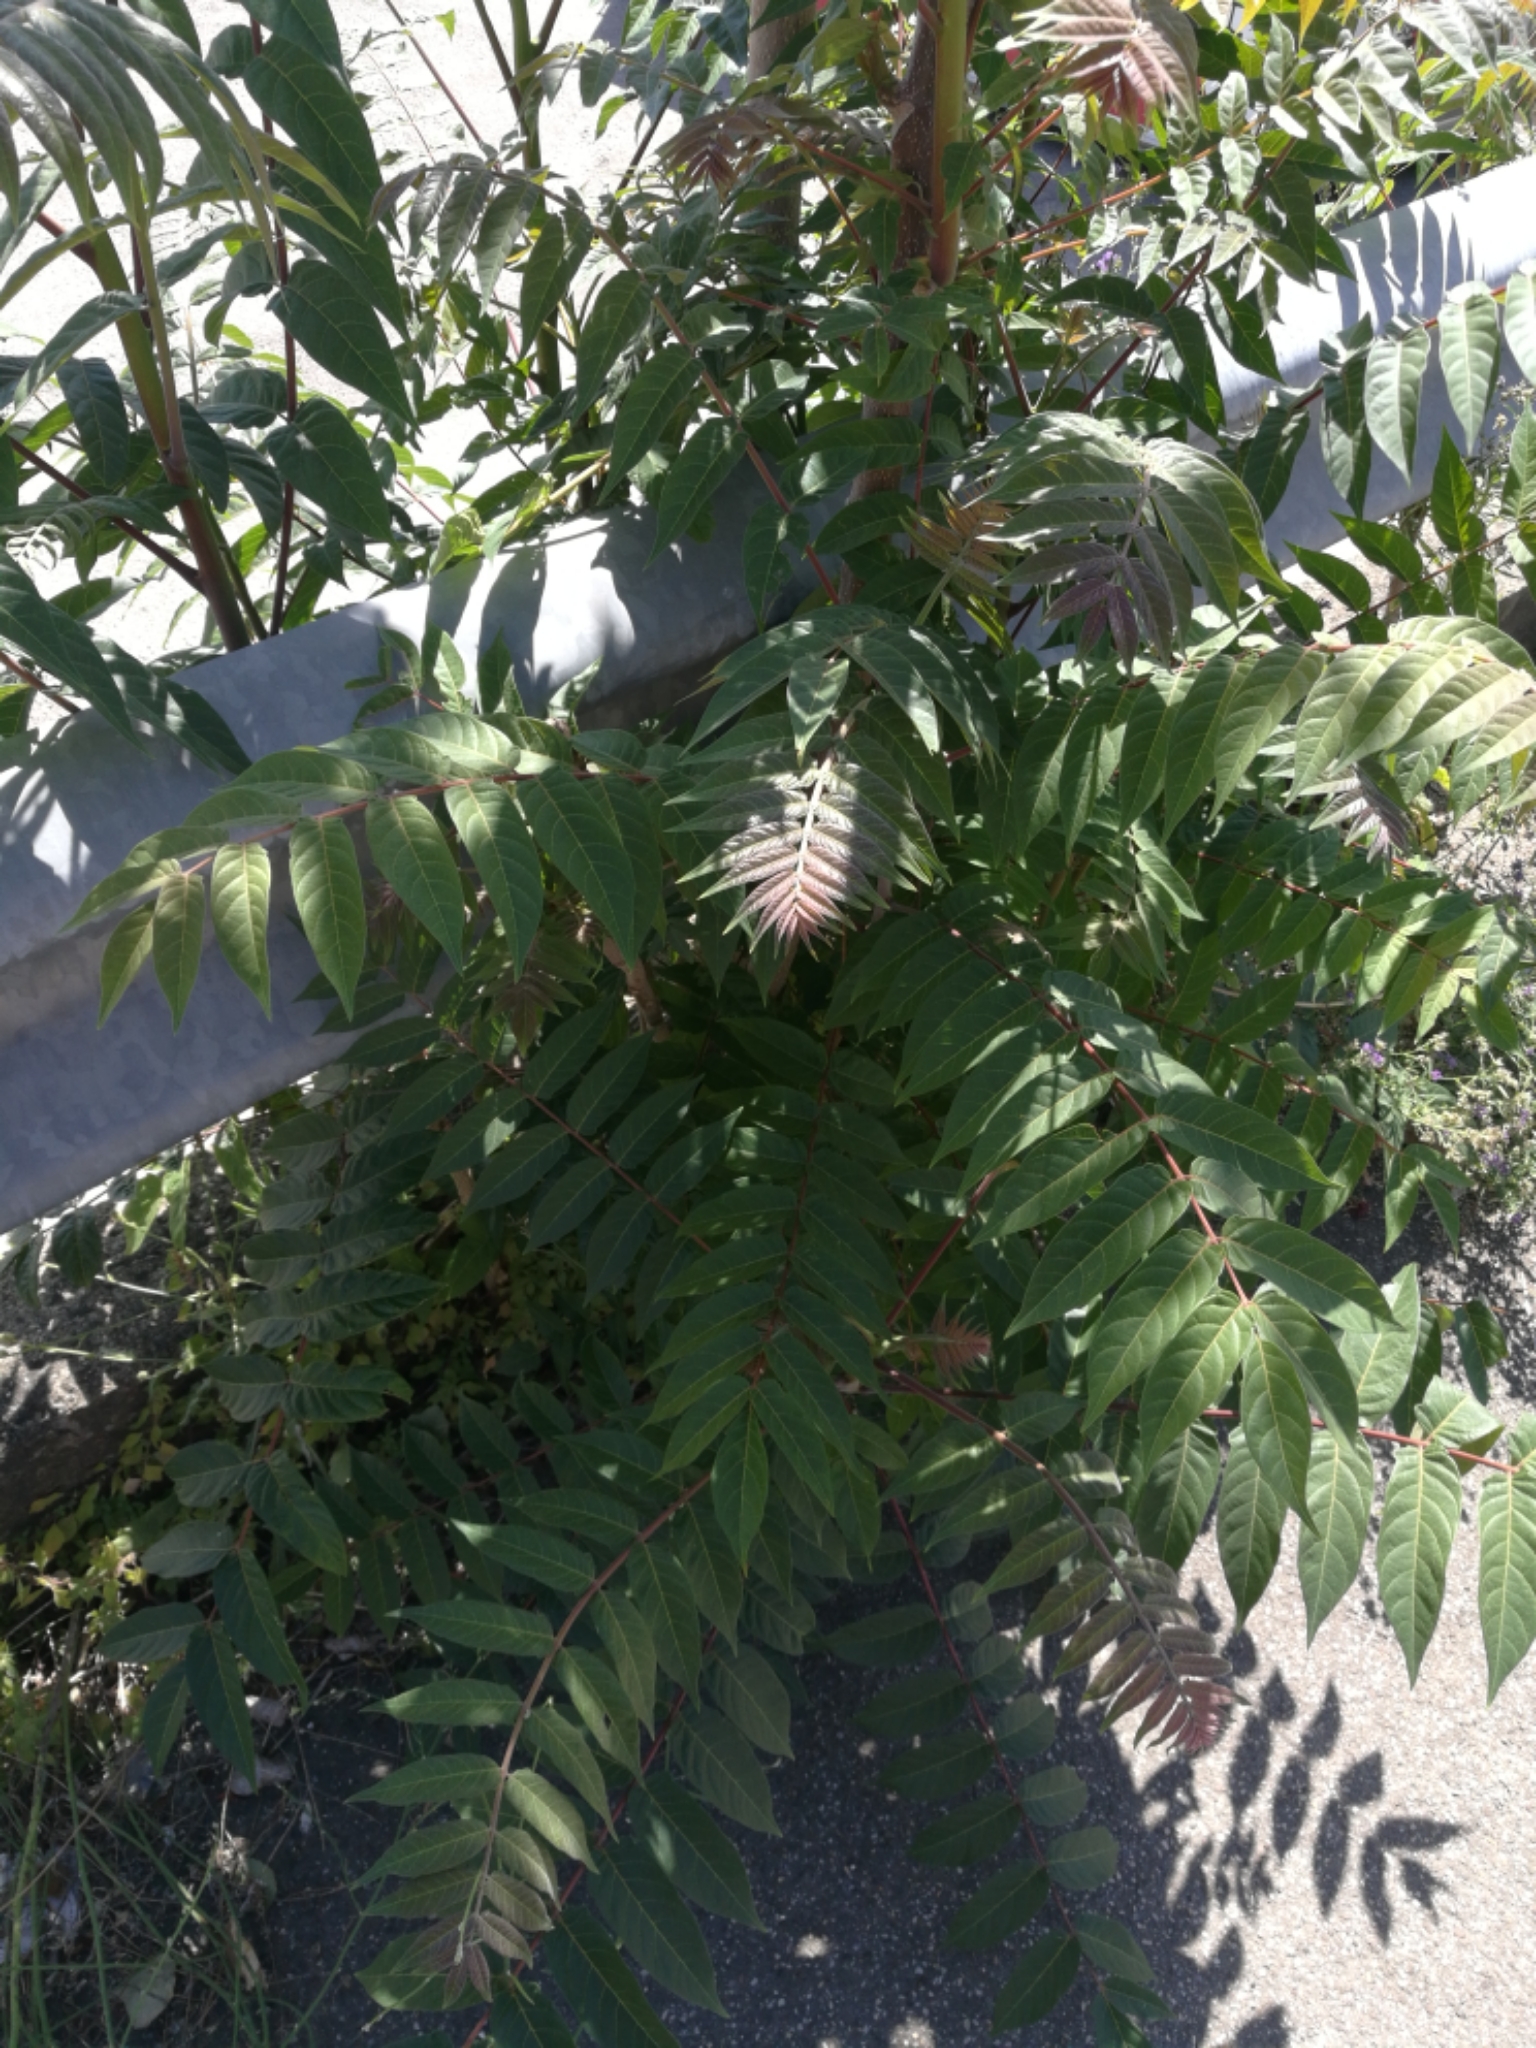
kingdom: Plantae
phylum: Tracheophyta
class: Magnoliopsida
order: Sapindales
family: Simaroubaceae
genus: Ailanthus
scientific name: Ailanthus altissima
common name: Tree-of-heaven
